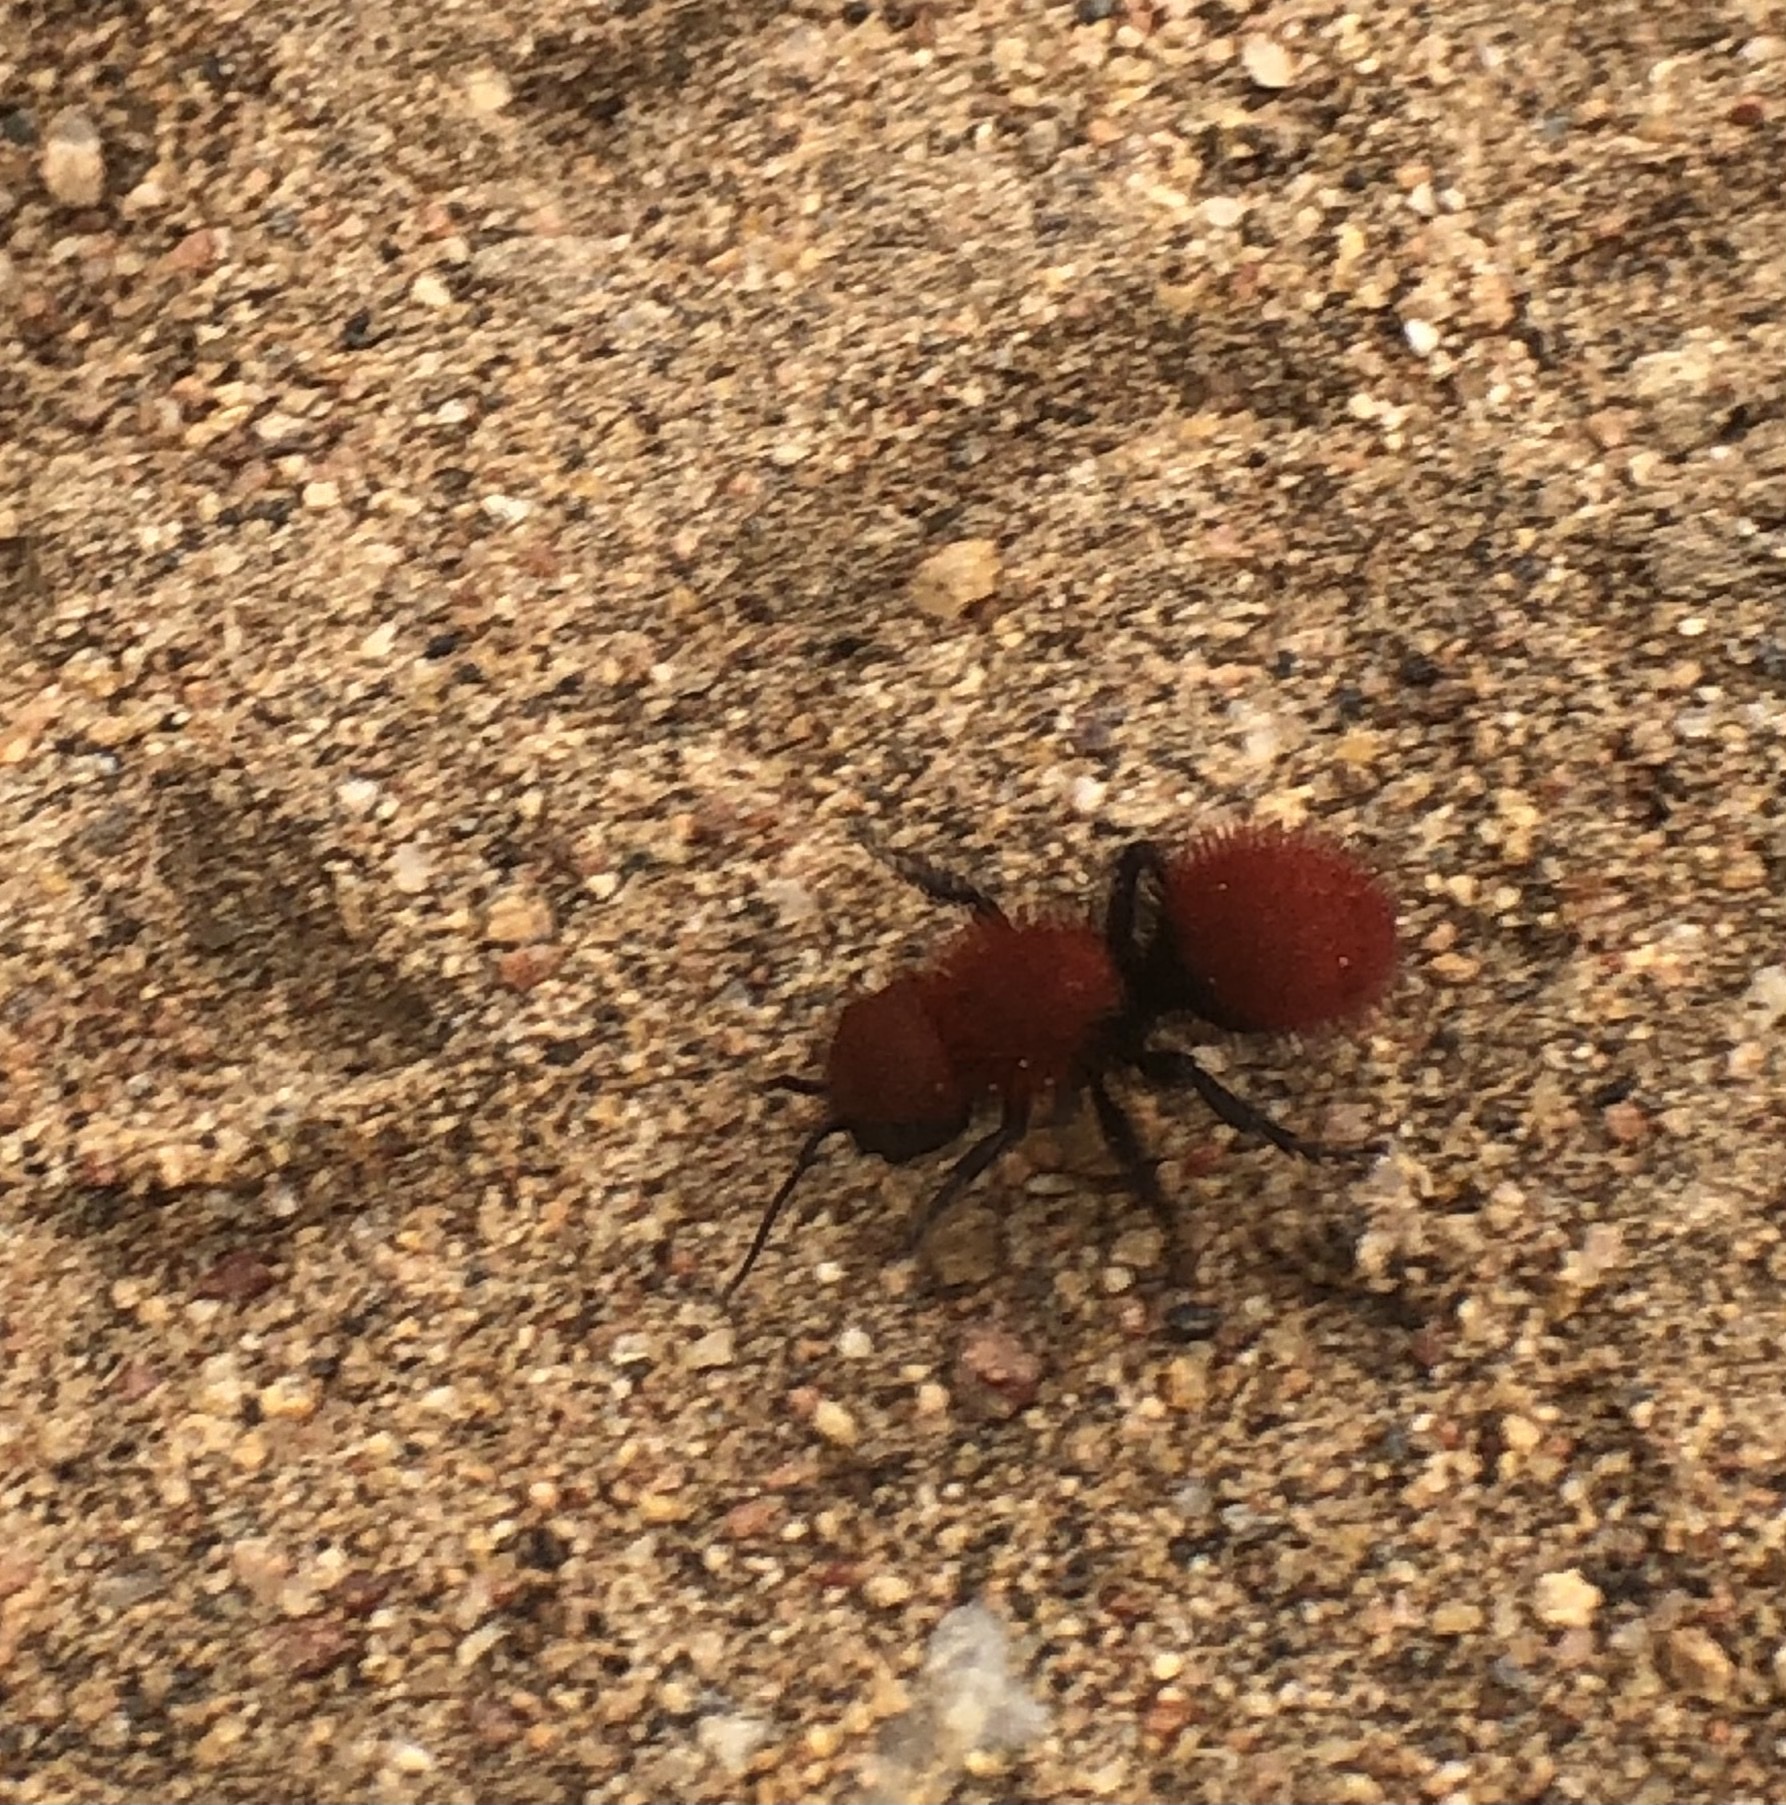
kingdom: Animalia
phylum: Arthropoda
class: Insecta
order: Hymenoptera
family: Mutillidae
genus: Dasymutilla
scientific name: Dasymutilla
